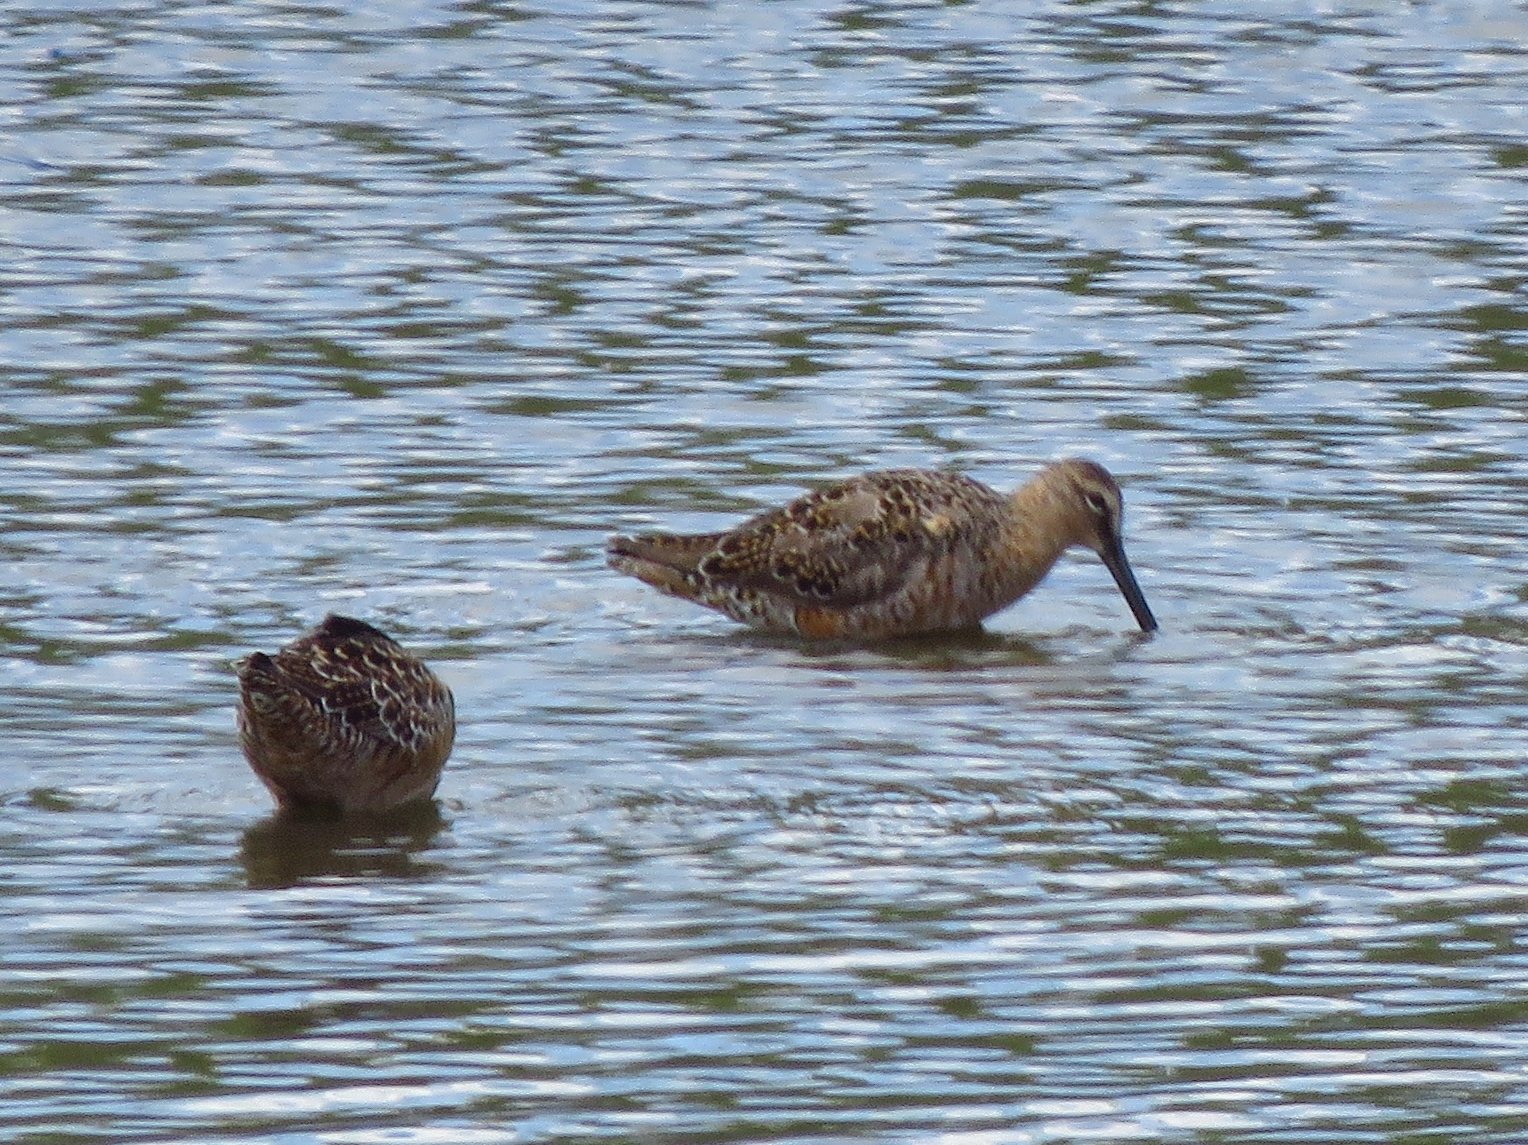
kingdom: Animalia
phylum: Chordata
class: Aves
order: Charadriiformes
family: Scolopacidae
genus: Limnodromus
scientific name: Limnodromus scolopaceus
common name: Long-billed dowitcher
